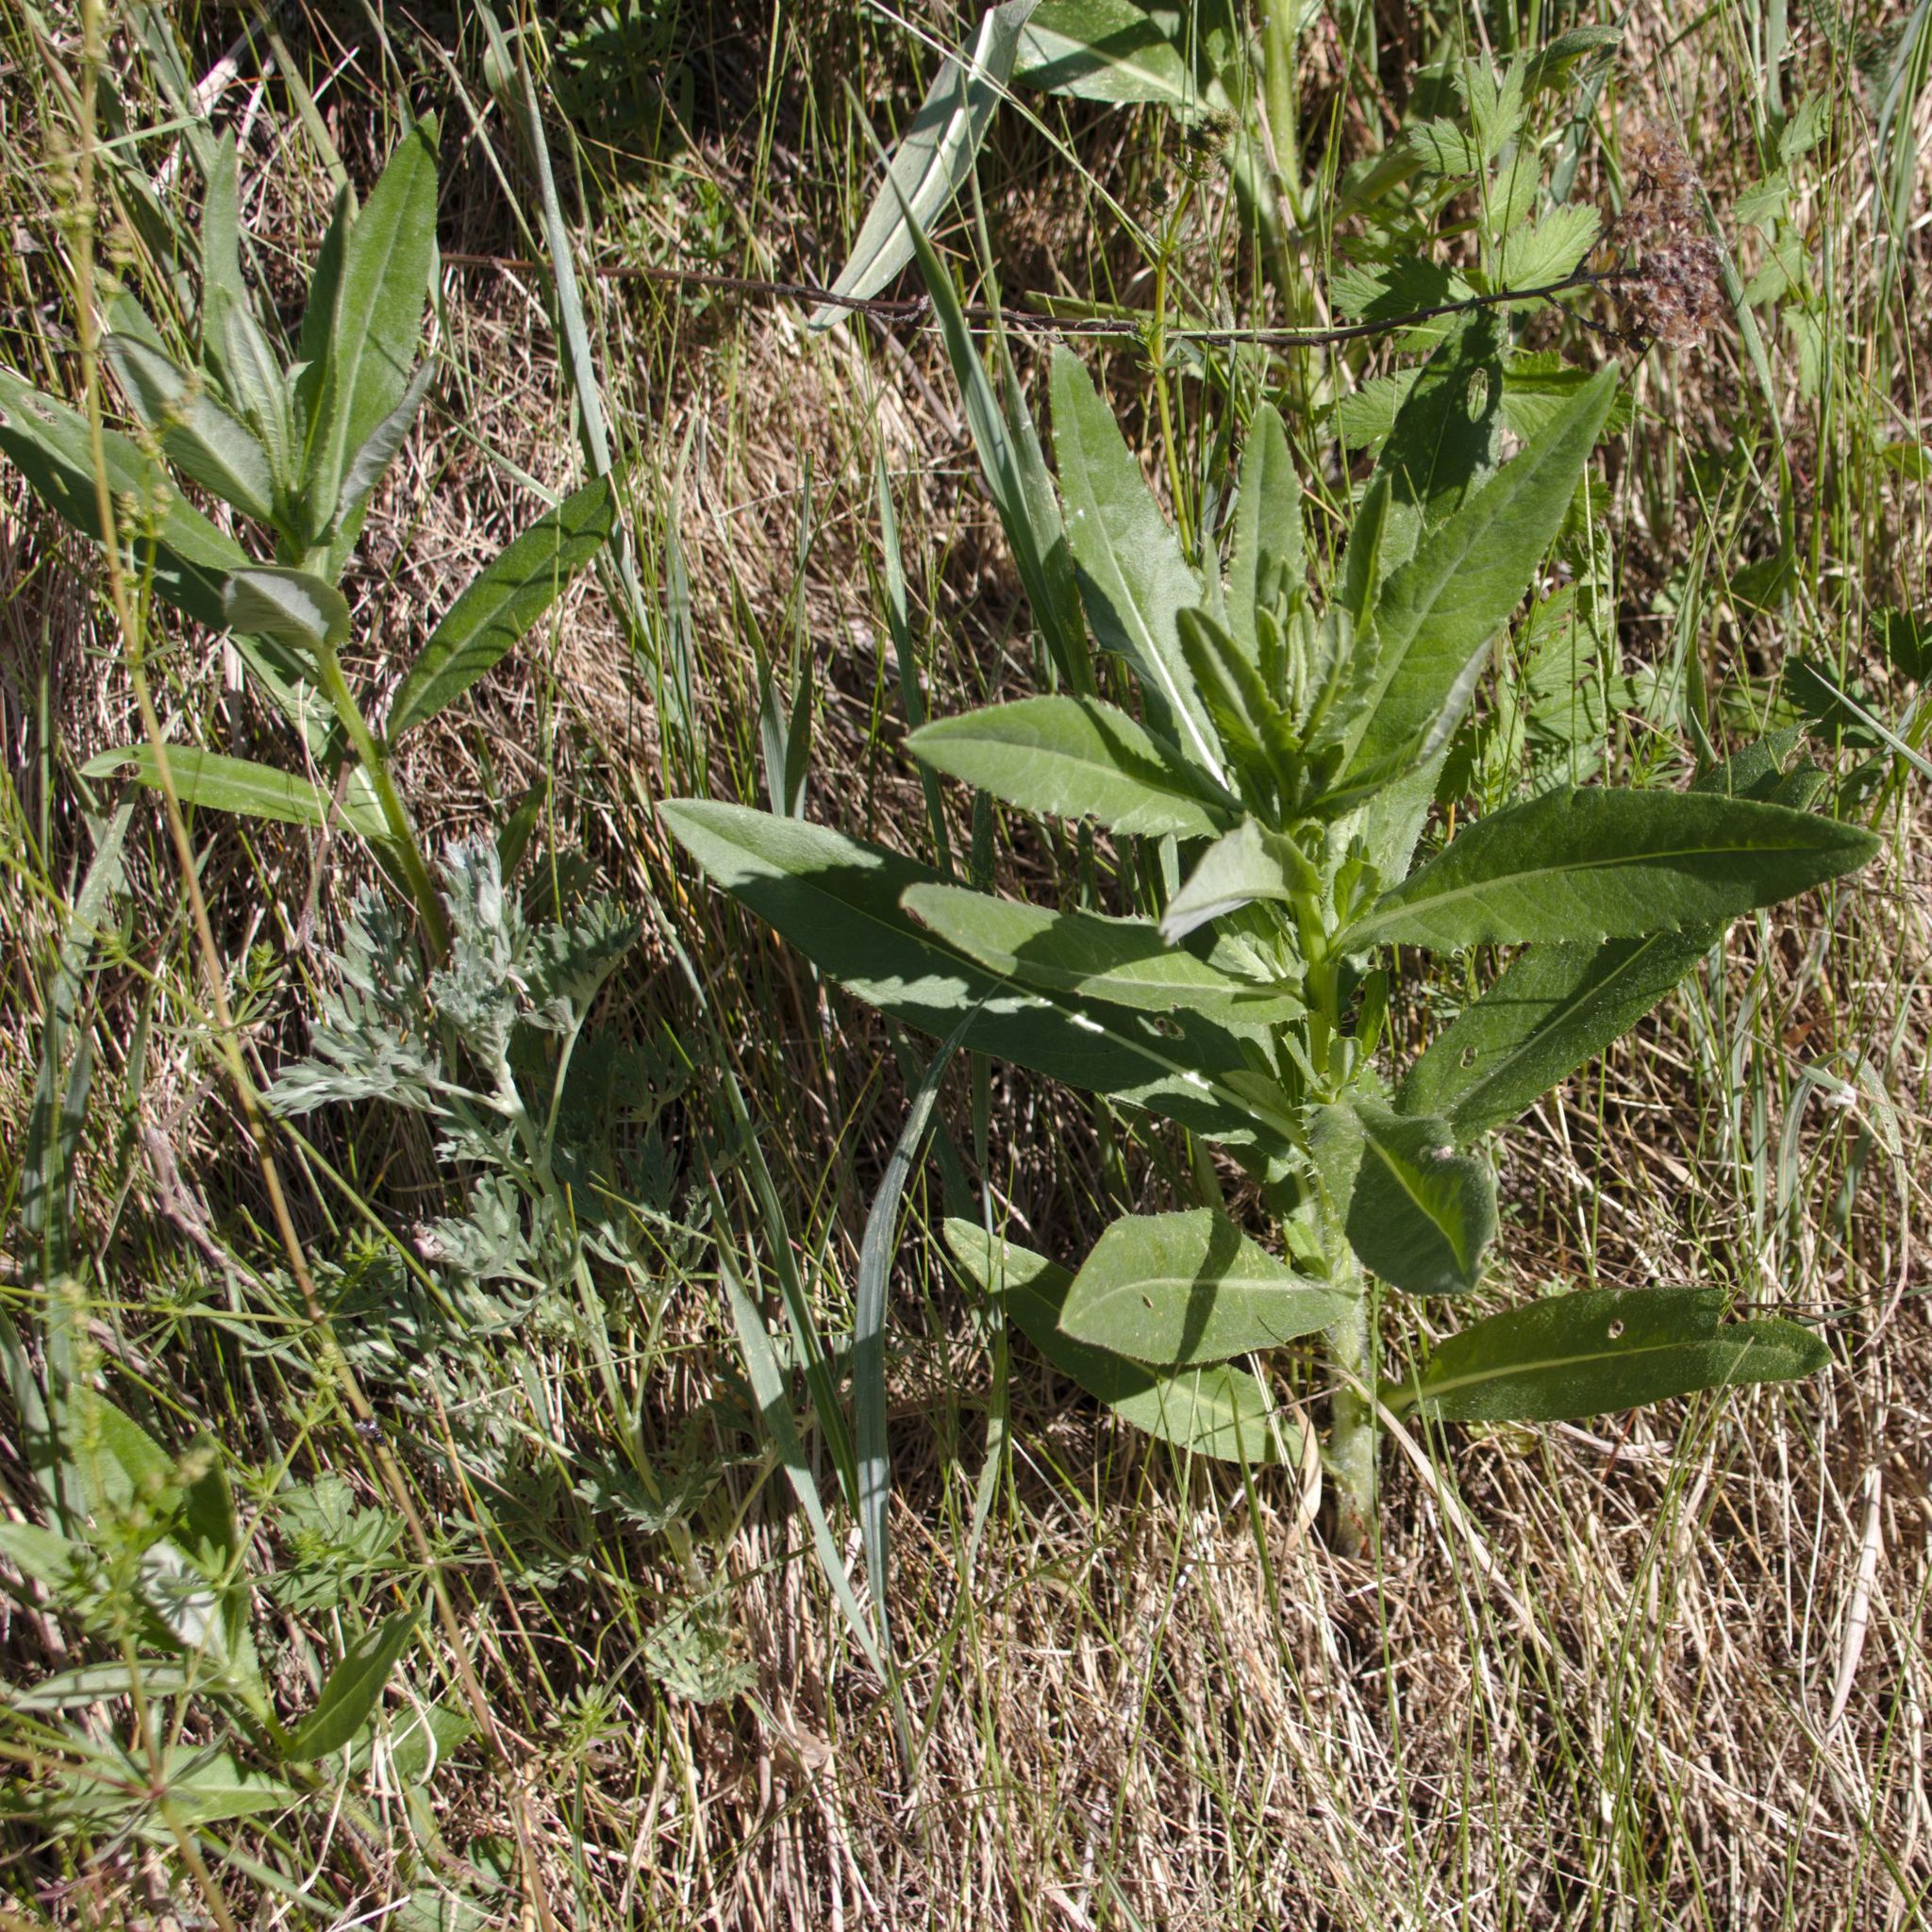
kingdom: Plantae
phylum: Tracheophyta
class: Magnoliopsida
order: Asterales
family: Asteraceae
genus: Cirsium
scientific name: Cirsium arvense
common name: Creeping thistle
